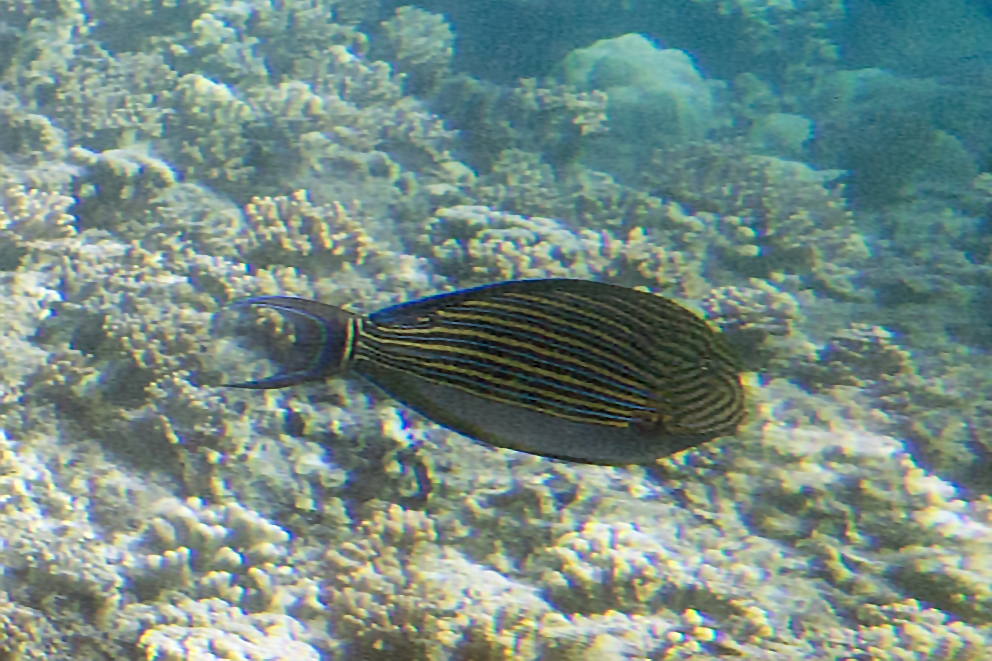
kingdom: Animalia
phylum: Chordata
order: Perciformes
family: Acanthuridae
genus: Acanthurus
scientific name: Acanthurus lineatus
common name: Striped surgeonfish
